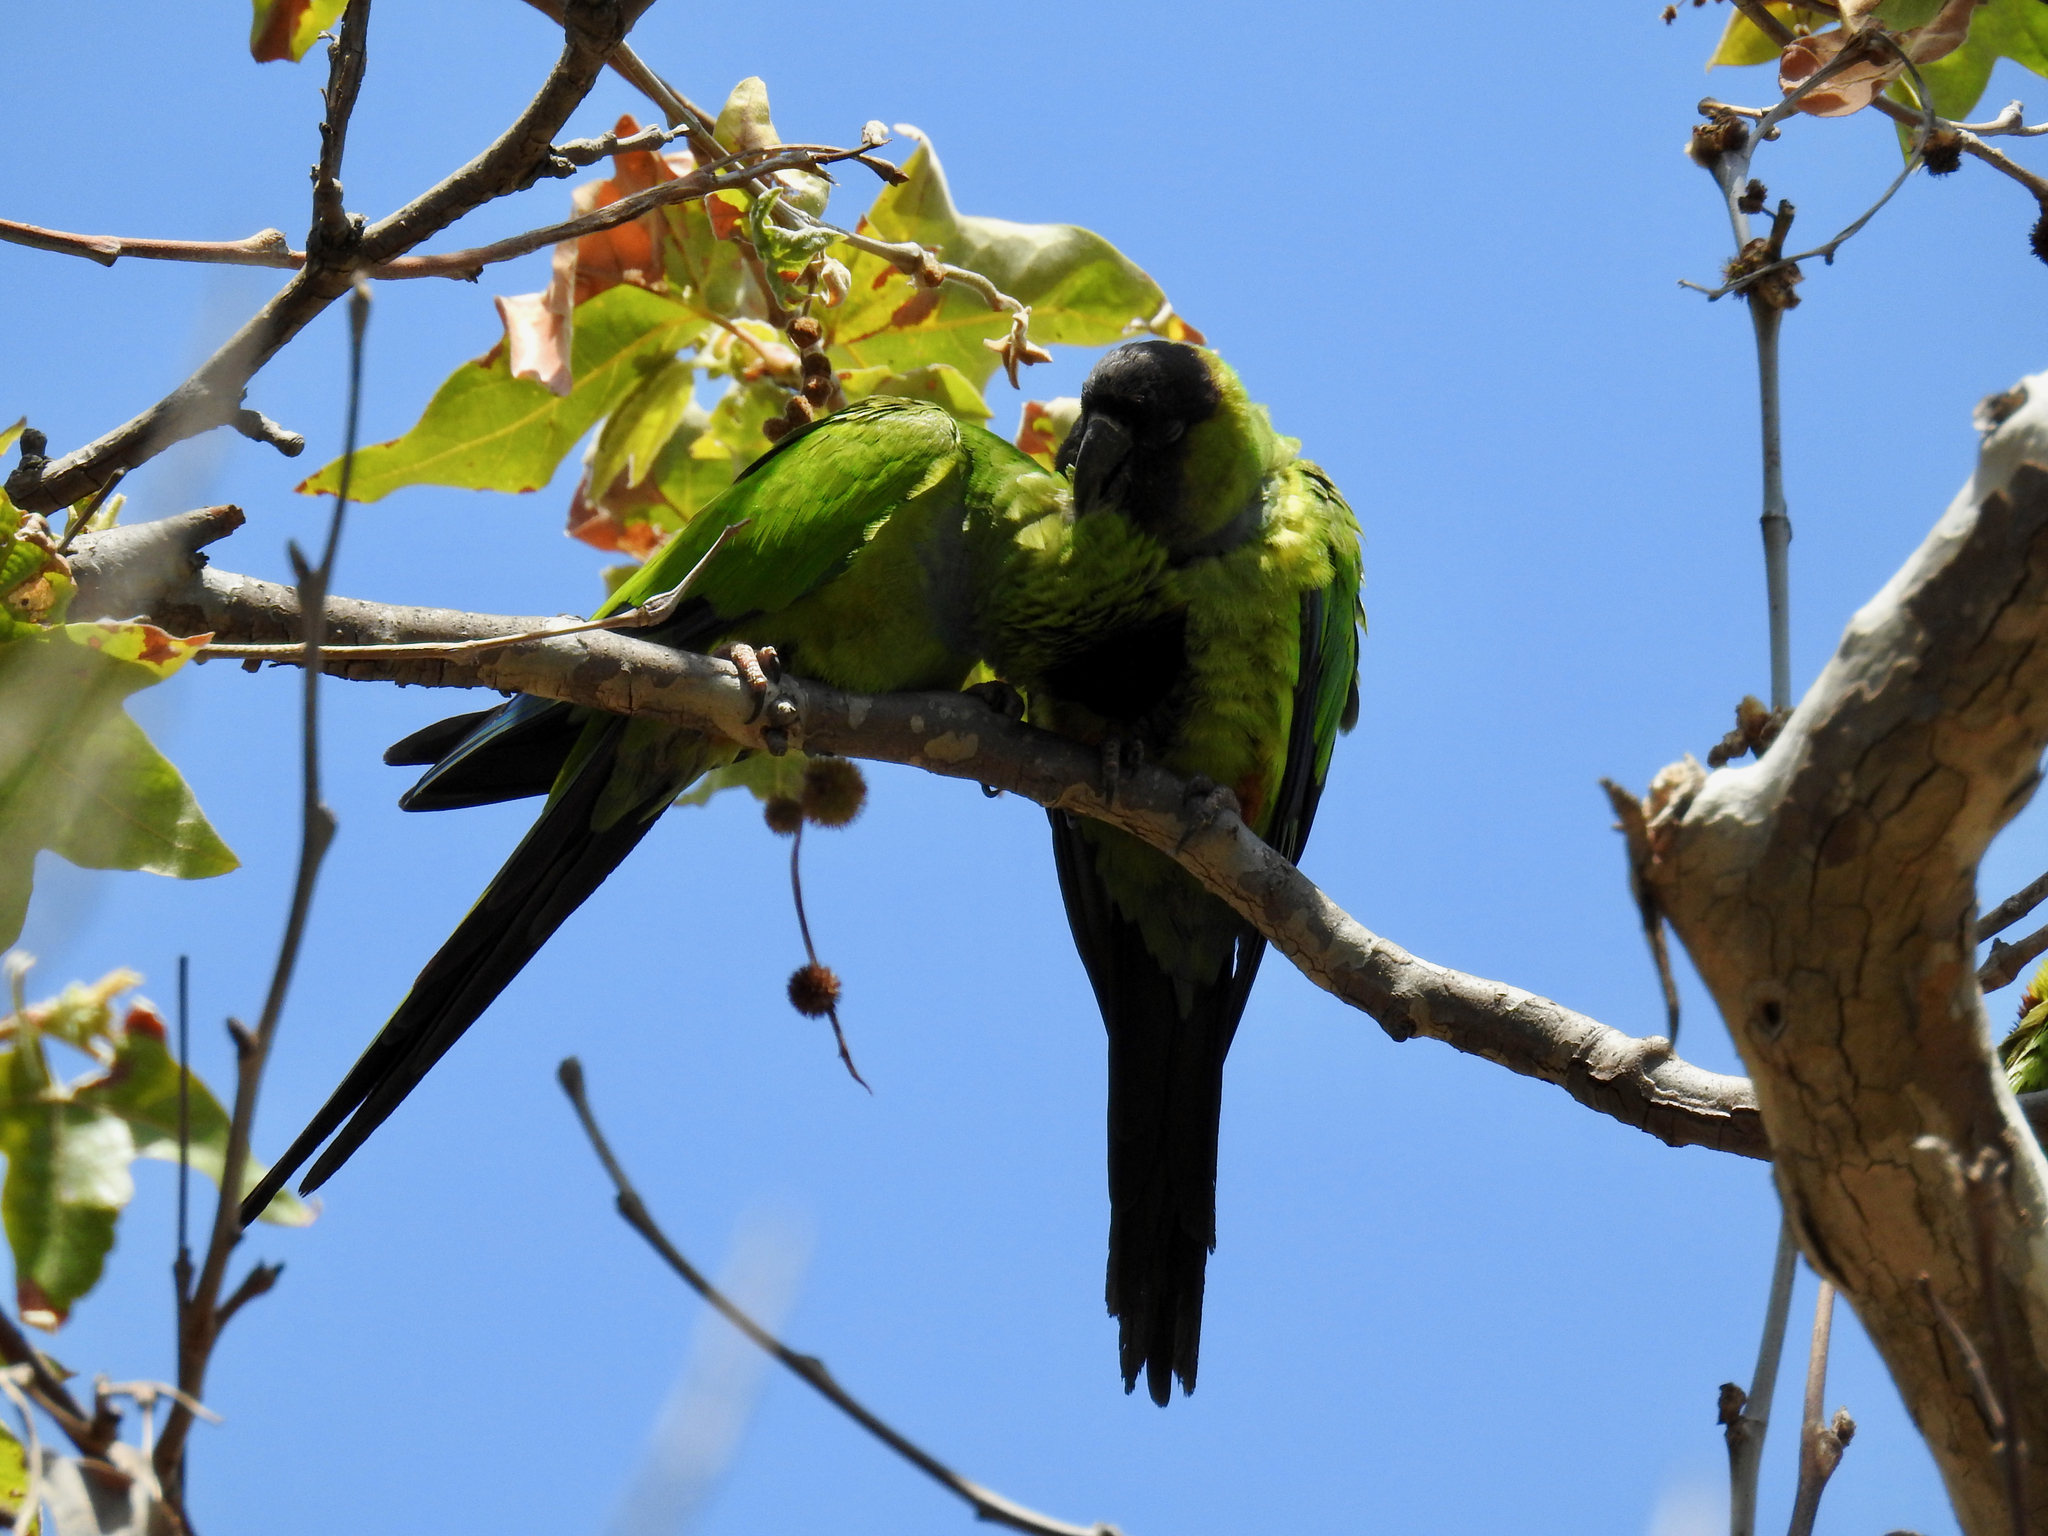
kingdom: Animalia
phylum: Chordata
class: Aves
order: Psittaciformes
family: Psittacidae
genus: Nandayus
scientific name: Nandayus nenday
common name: Nanday parakeet
